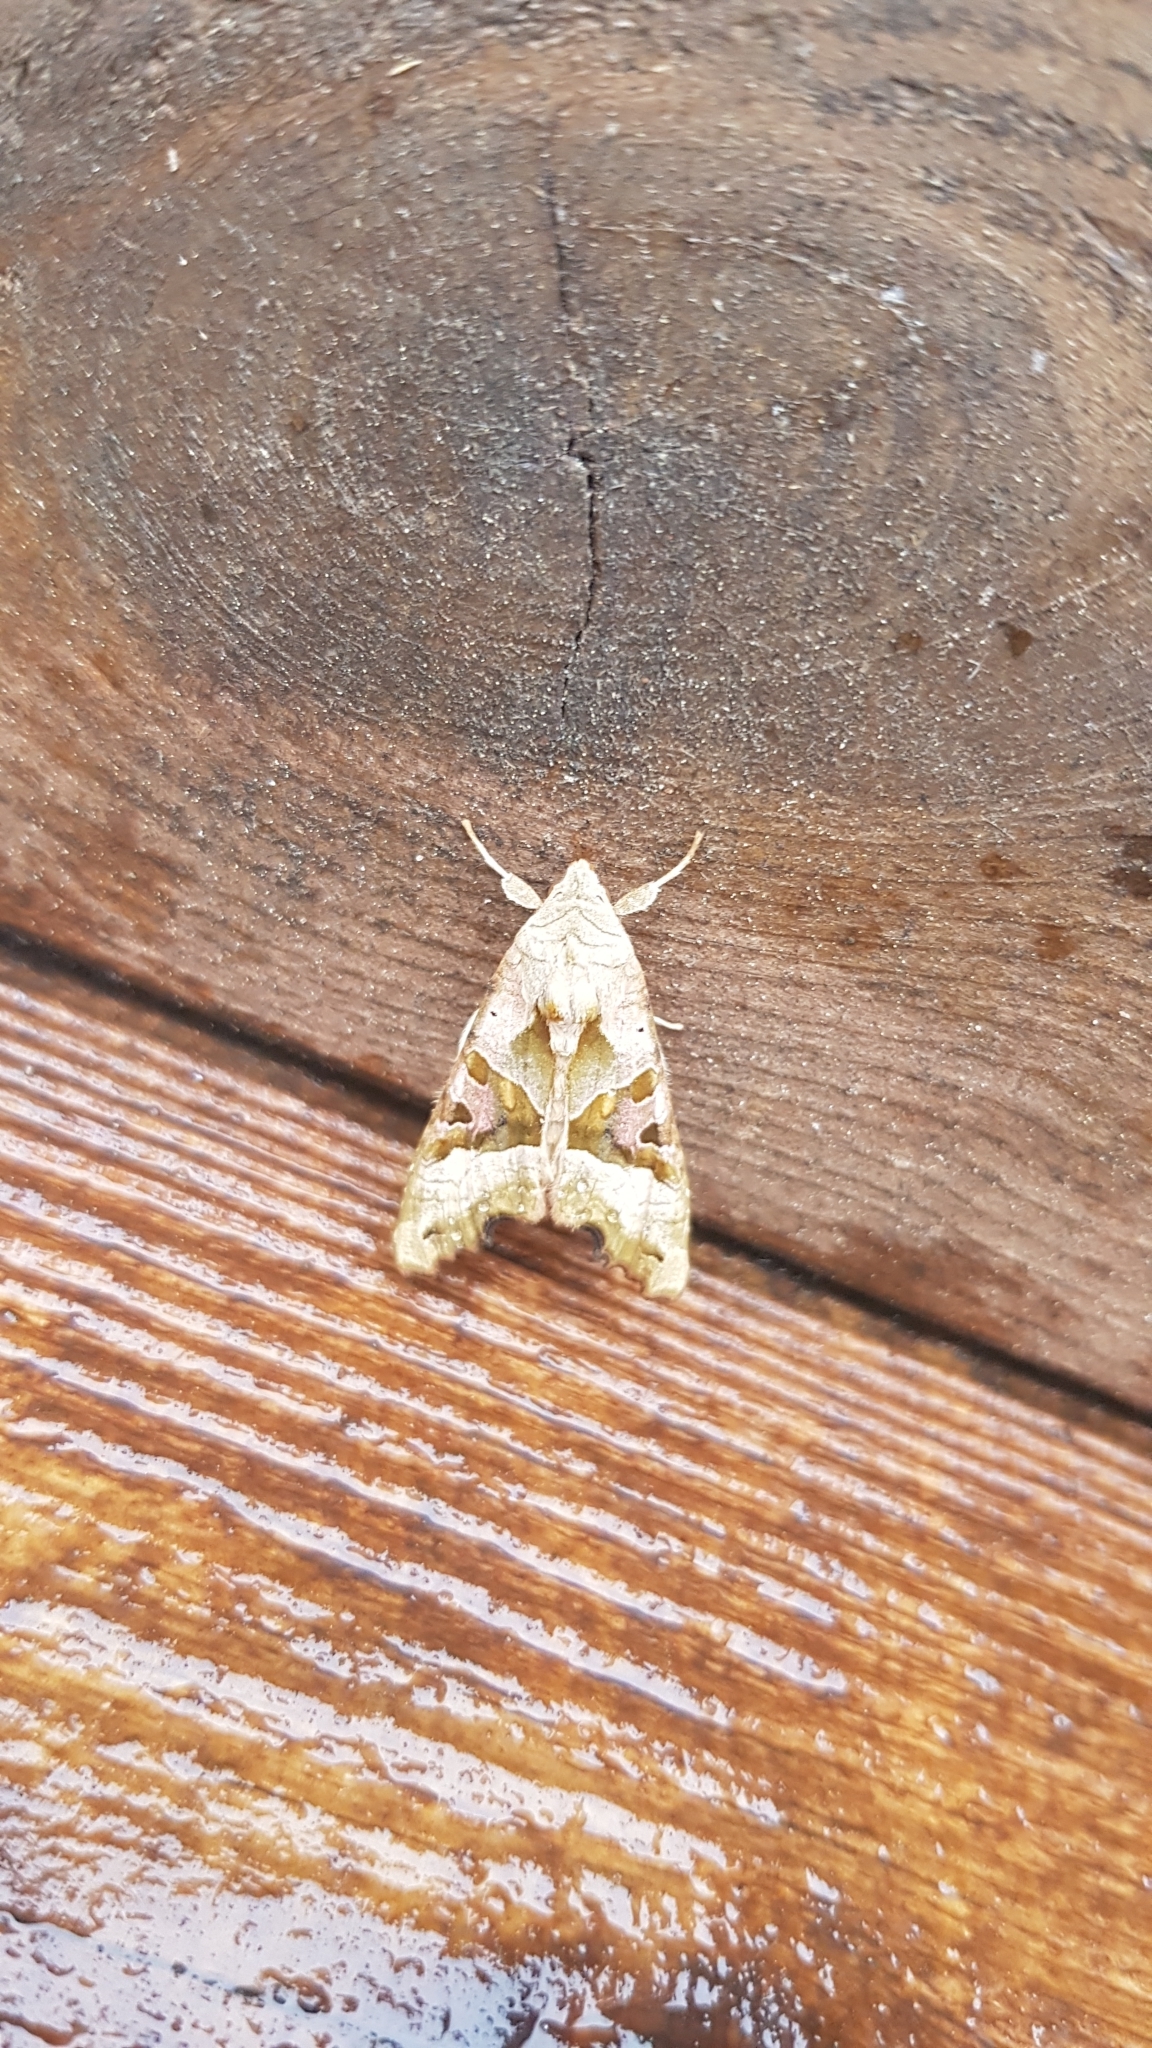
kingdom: Animalia
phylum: Arthropoda
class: Insecta
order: Lepidoptera
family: Noctuidae
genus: Phlogophora
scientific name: Phlogophora meticulosa
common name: Angle shades
